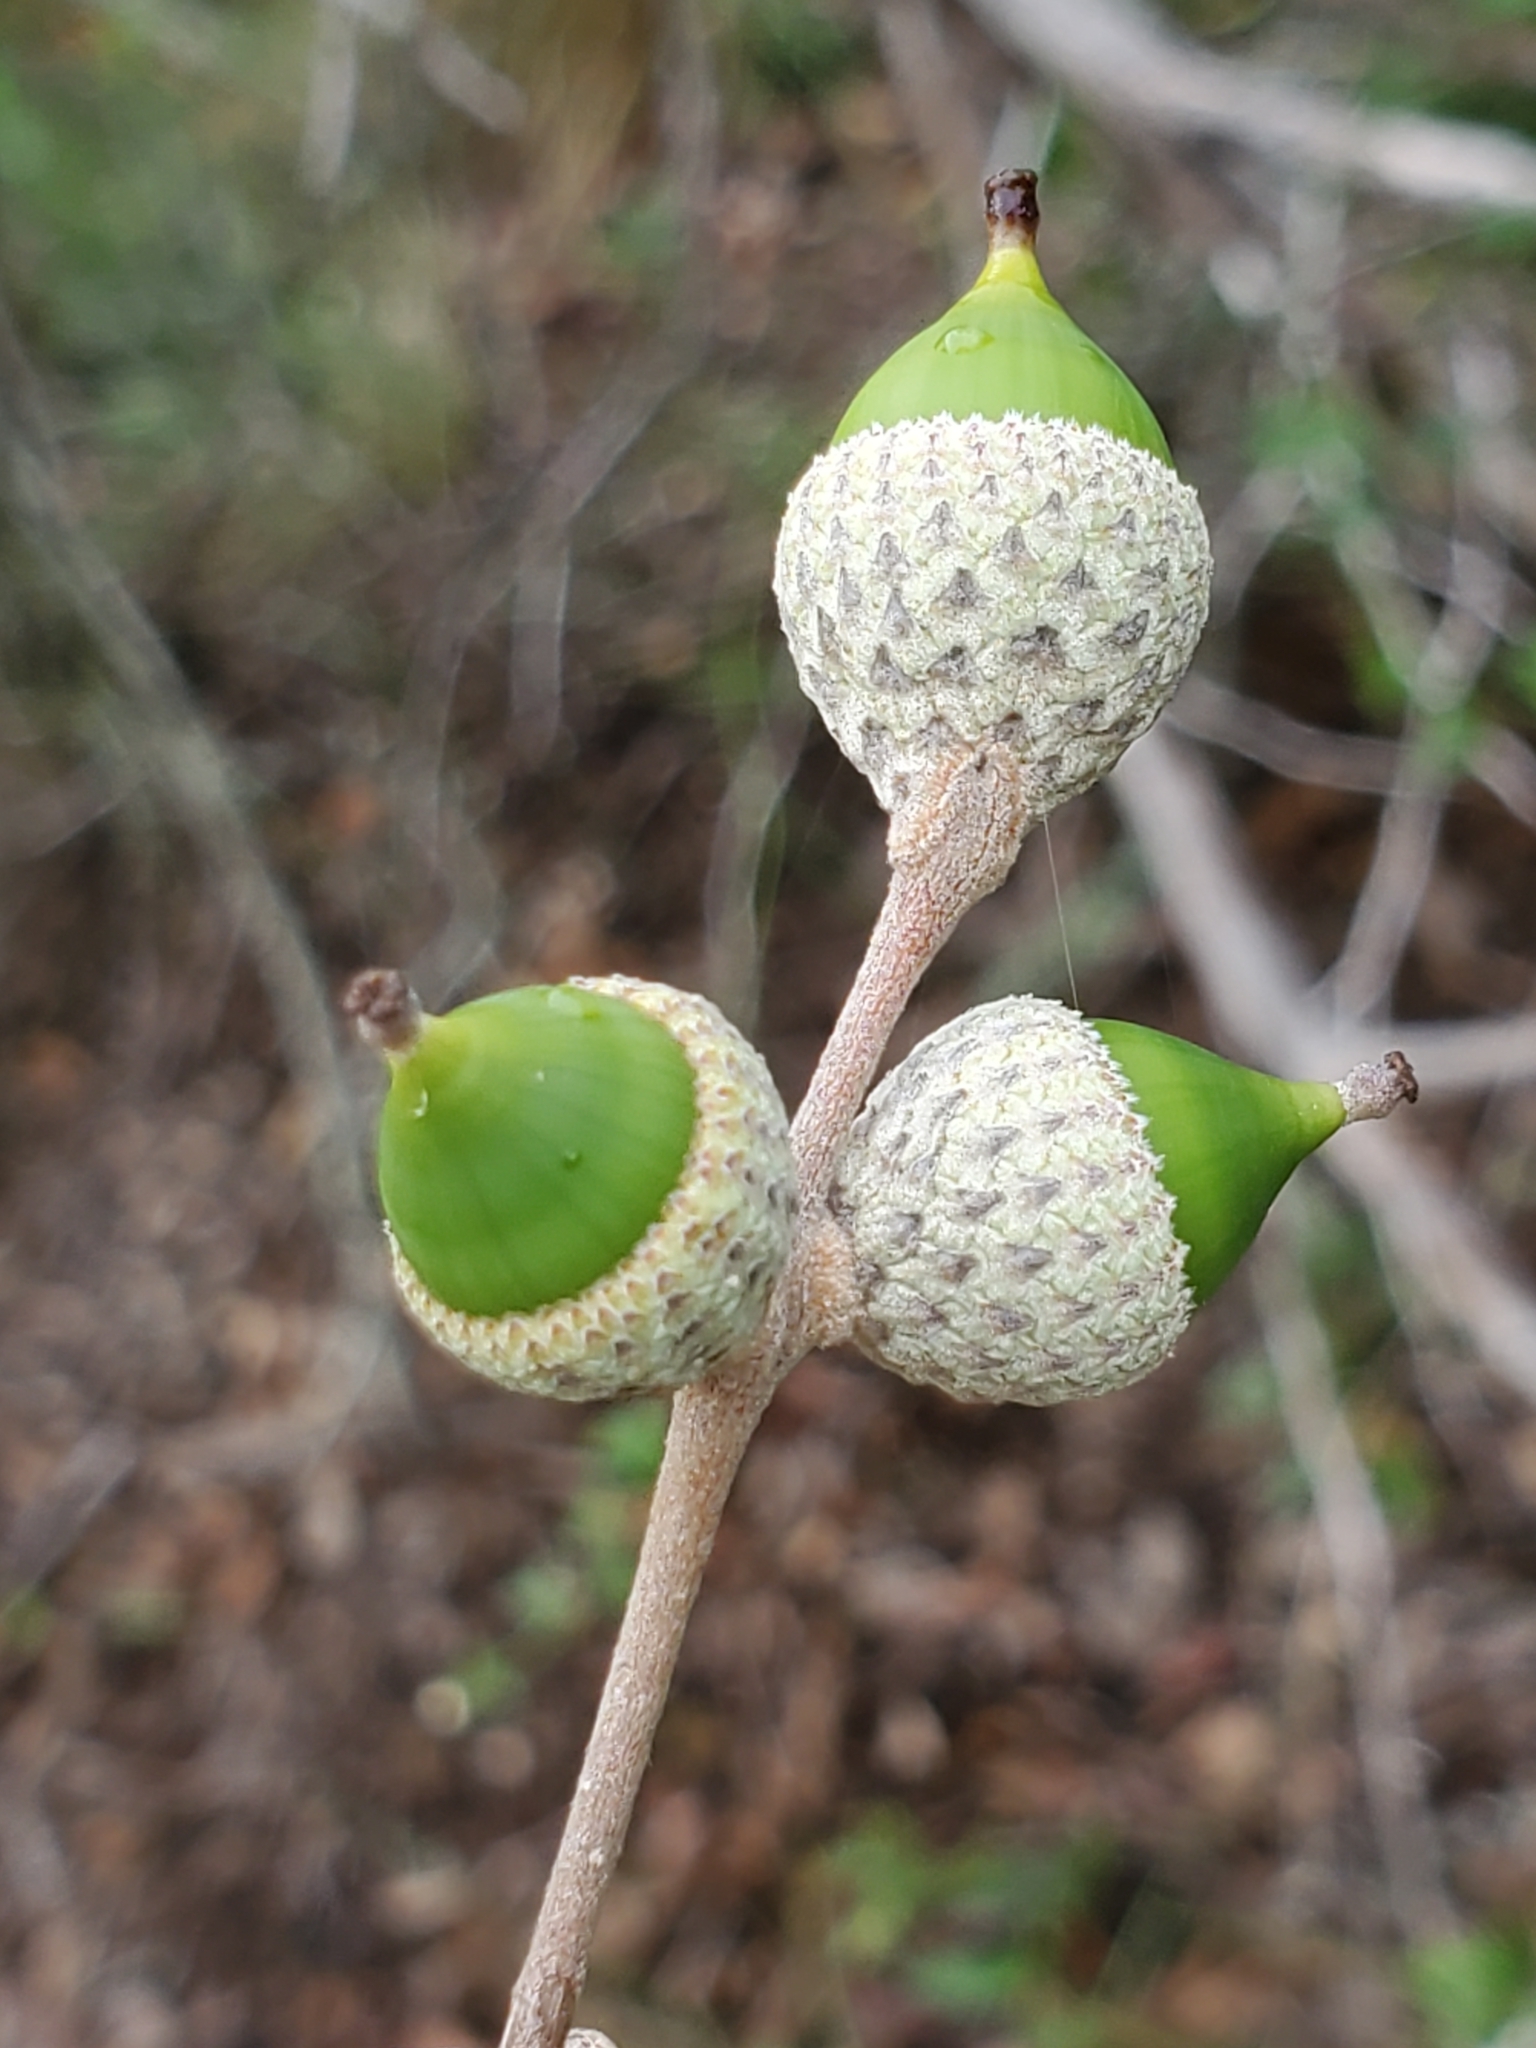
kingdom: Plantae
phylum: Tracheophyta
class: Magnoliopsida
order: Fagales
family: Fagaceae
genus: Quercus
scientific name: Quercus fusiformis
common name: Texas live oak
